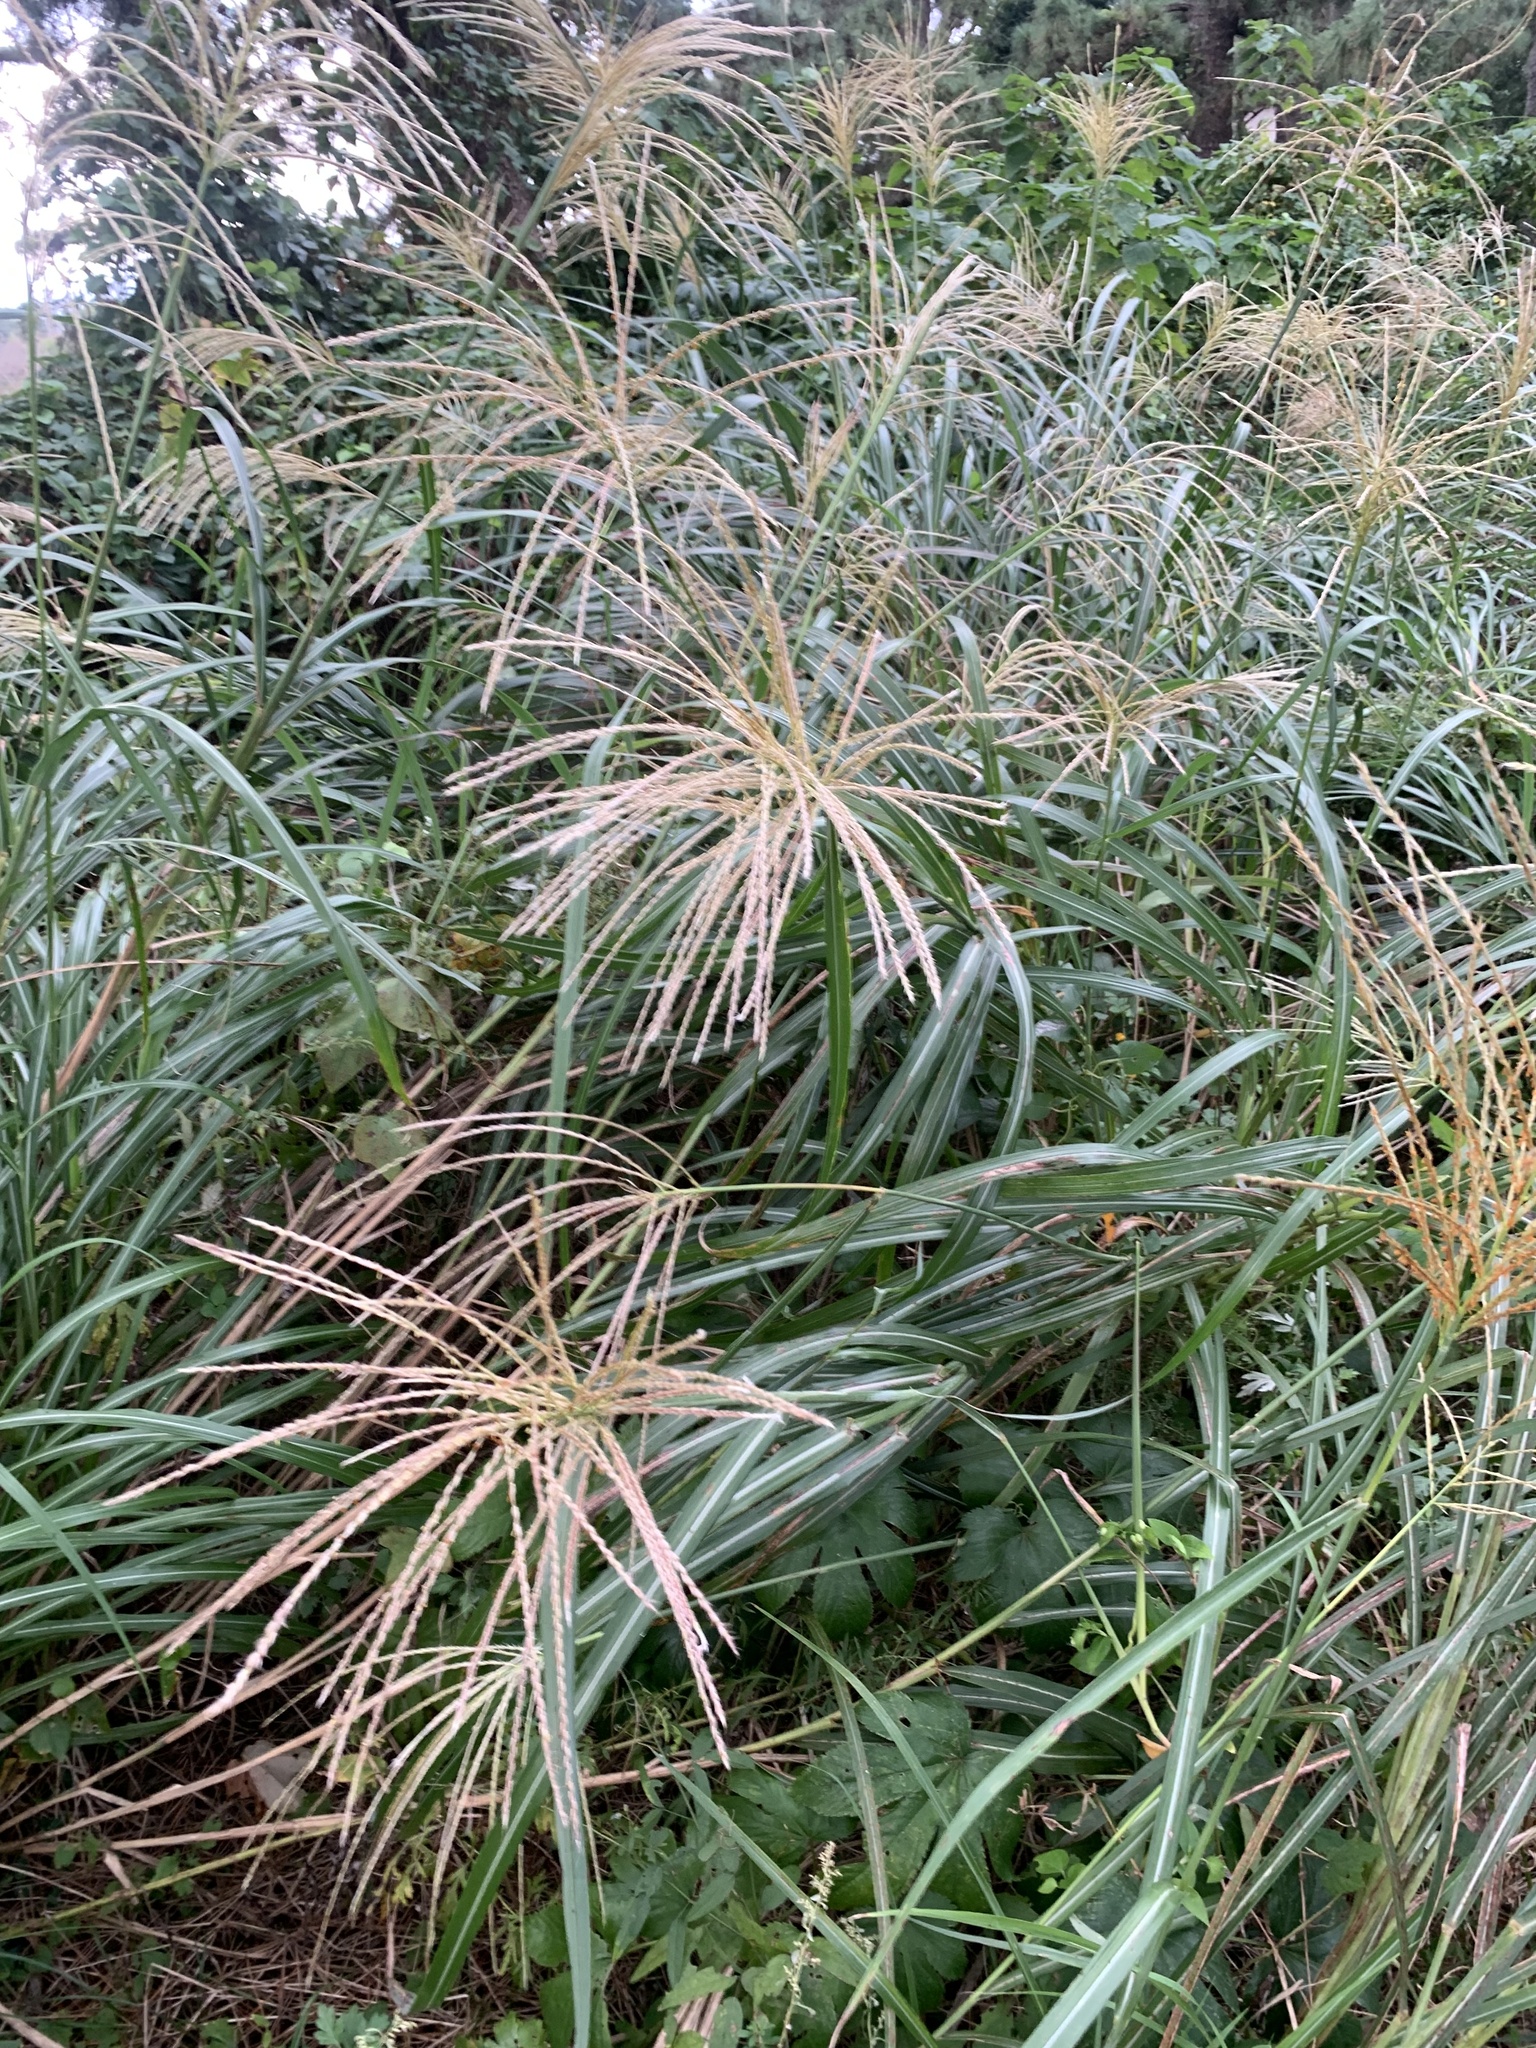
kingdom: Plantae
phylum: Tracheophyta
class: Liliopsida
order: Poales
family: Poaceae
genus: Miscanthus
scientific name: Miscanthus sinensis
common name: Chinese silvergrass
